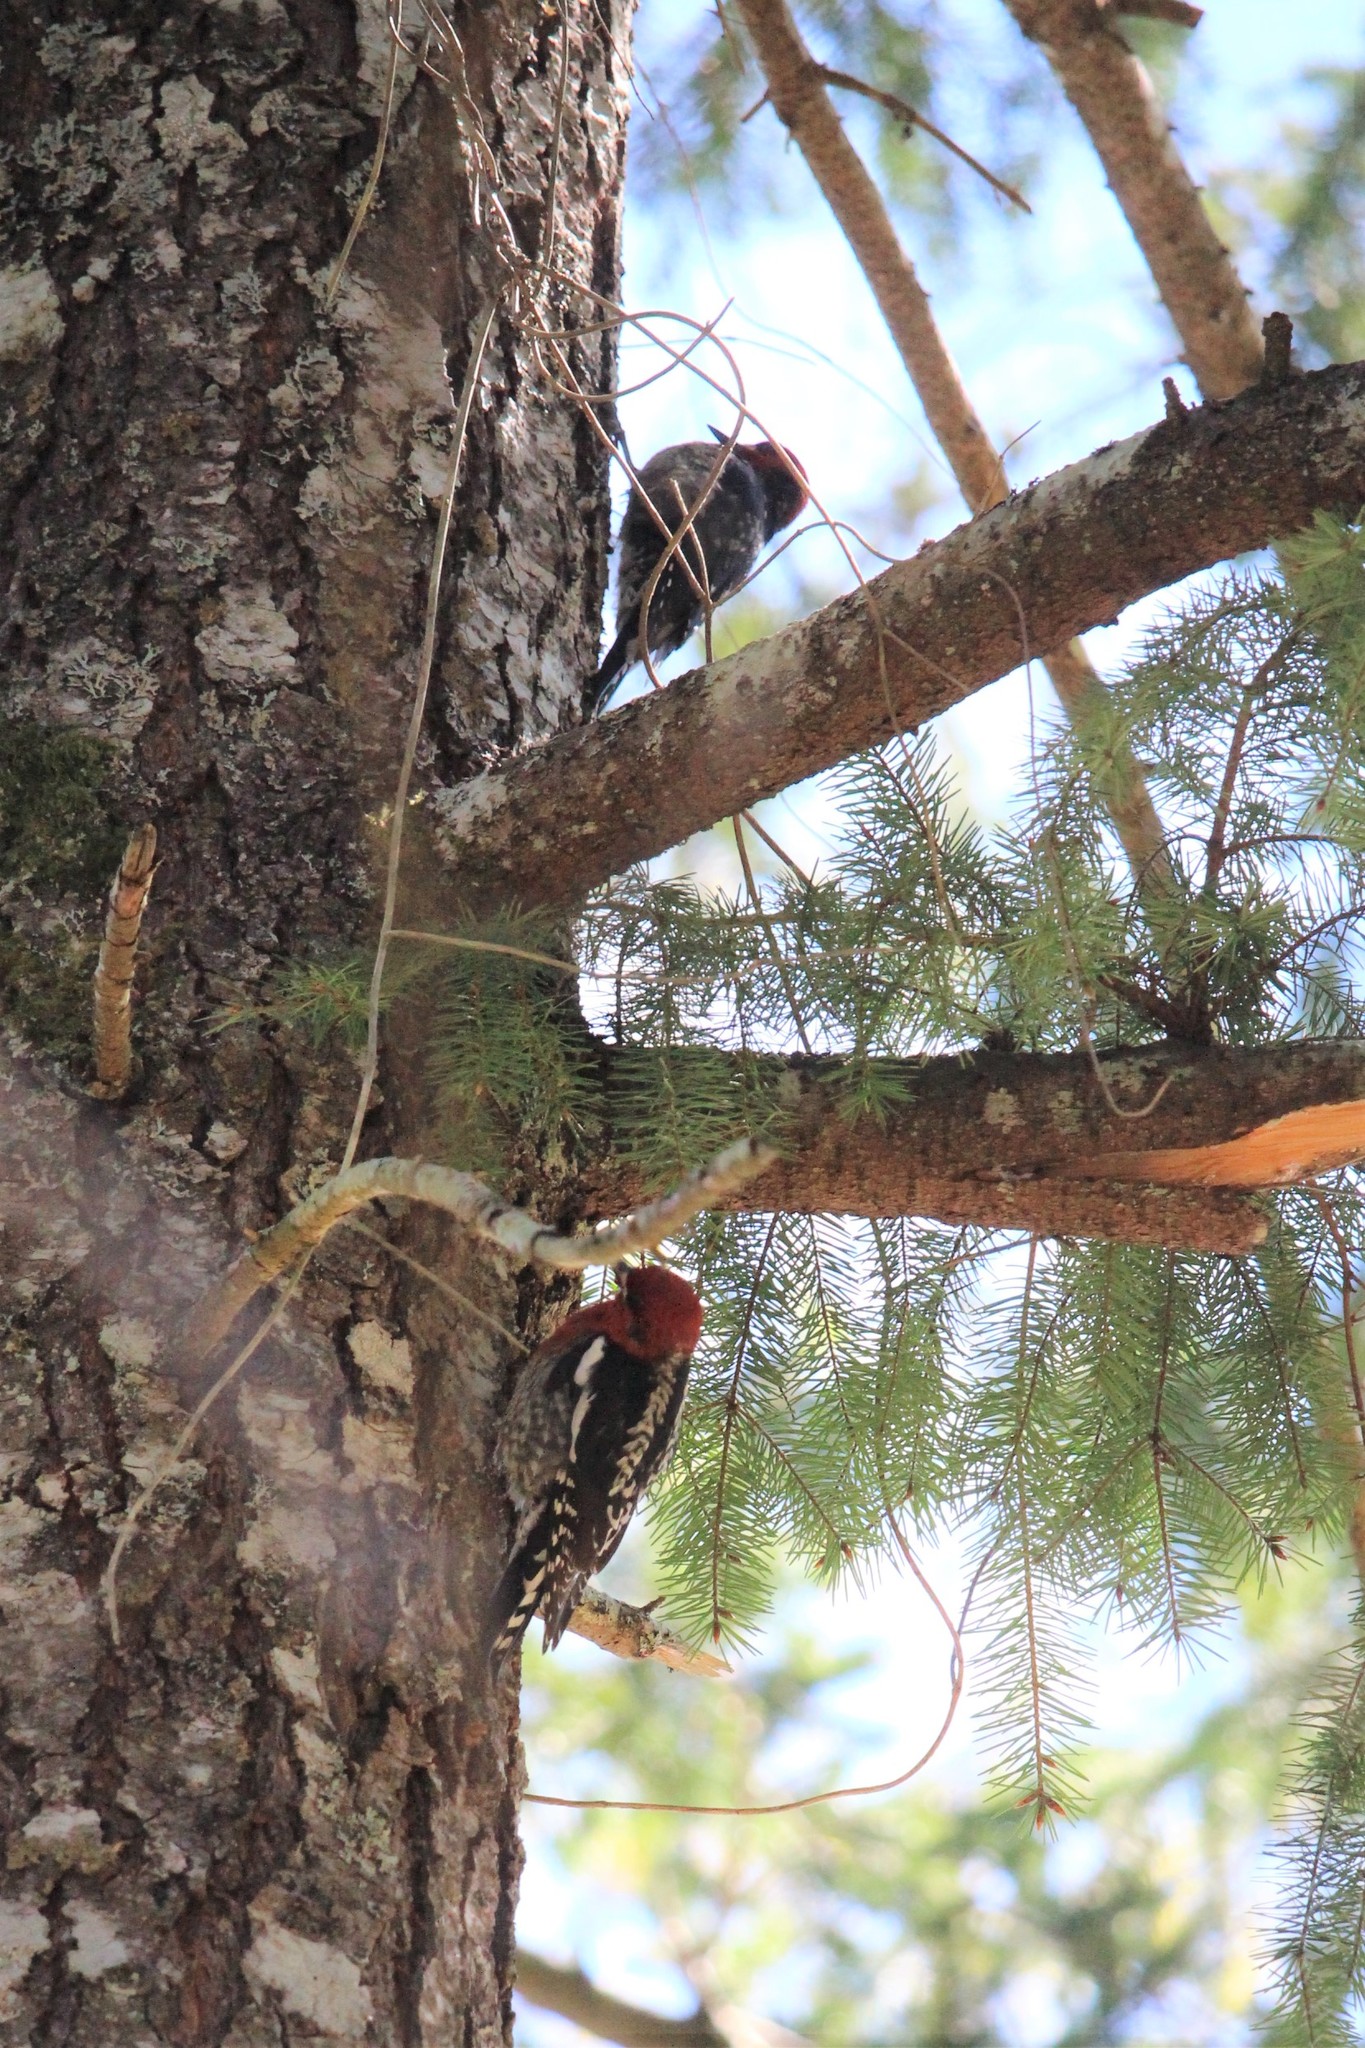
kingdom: Animalia
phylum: Chordata
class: Aves
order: Piciformes
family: Picidae
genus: Sphyrapicus
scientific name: Sphyrapicus ruber
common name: Red-breasted sapsucker
